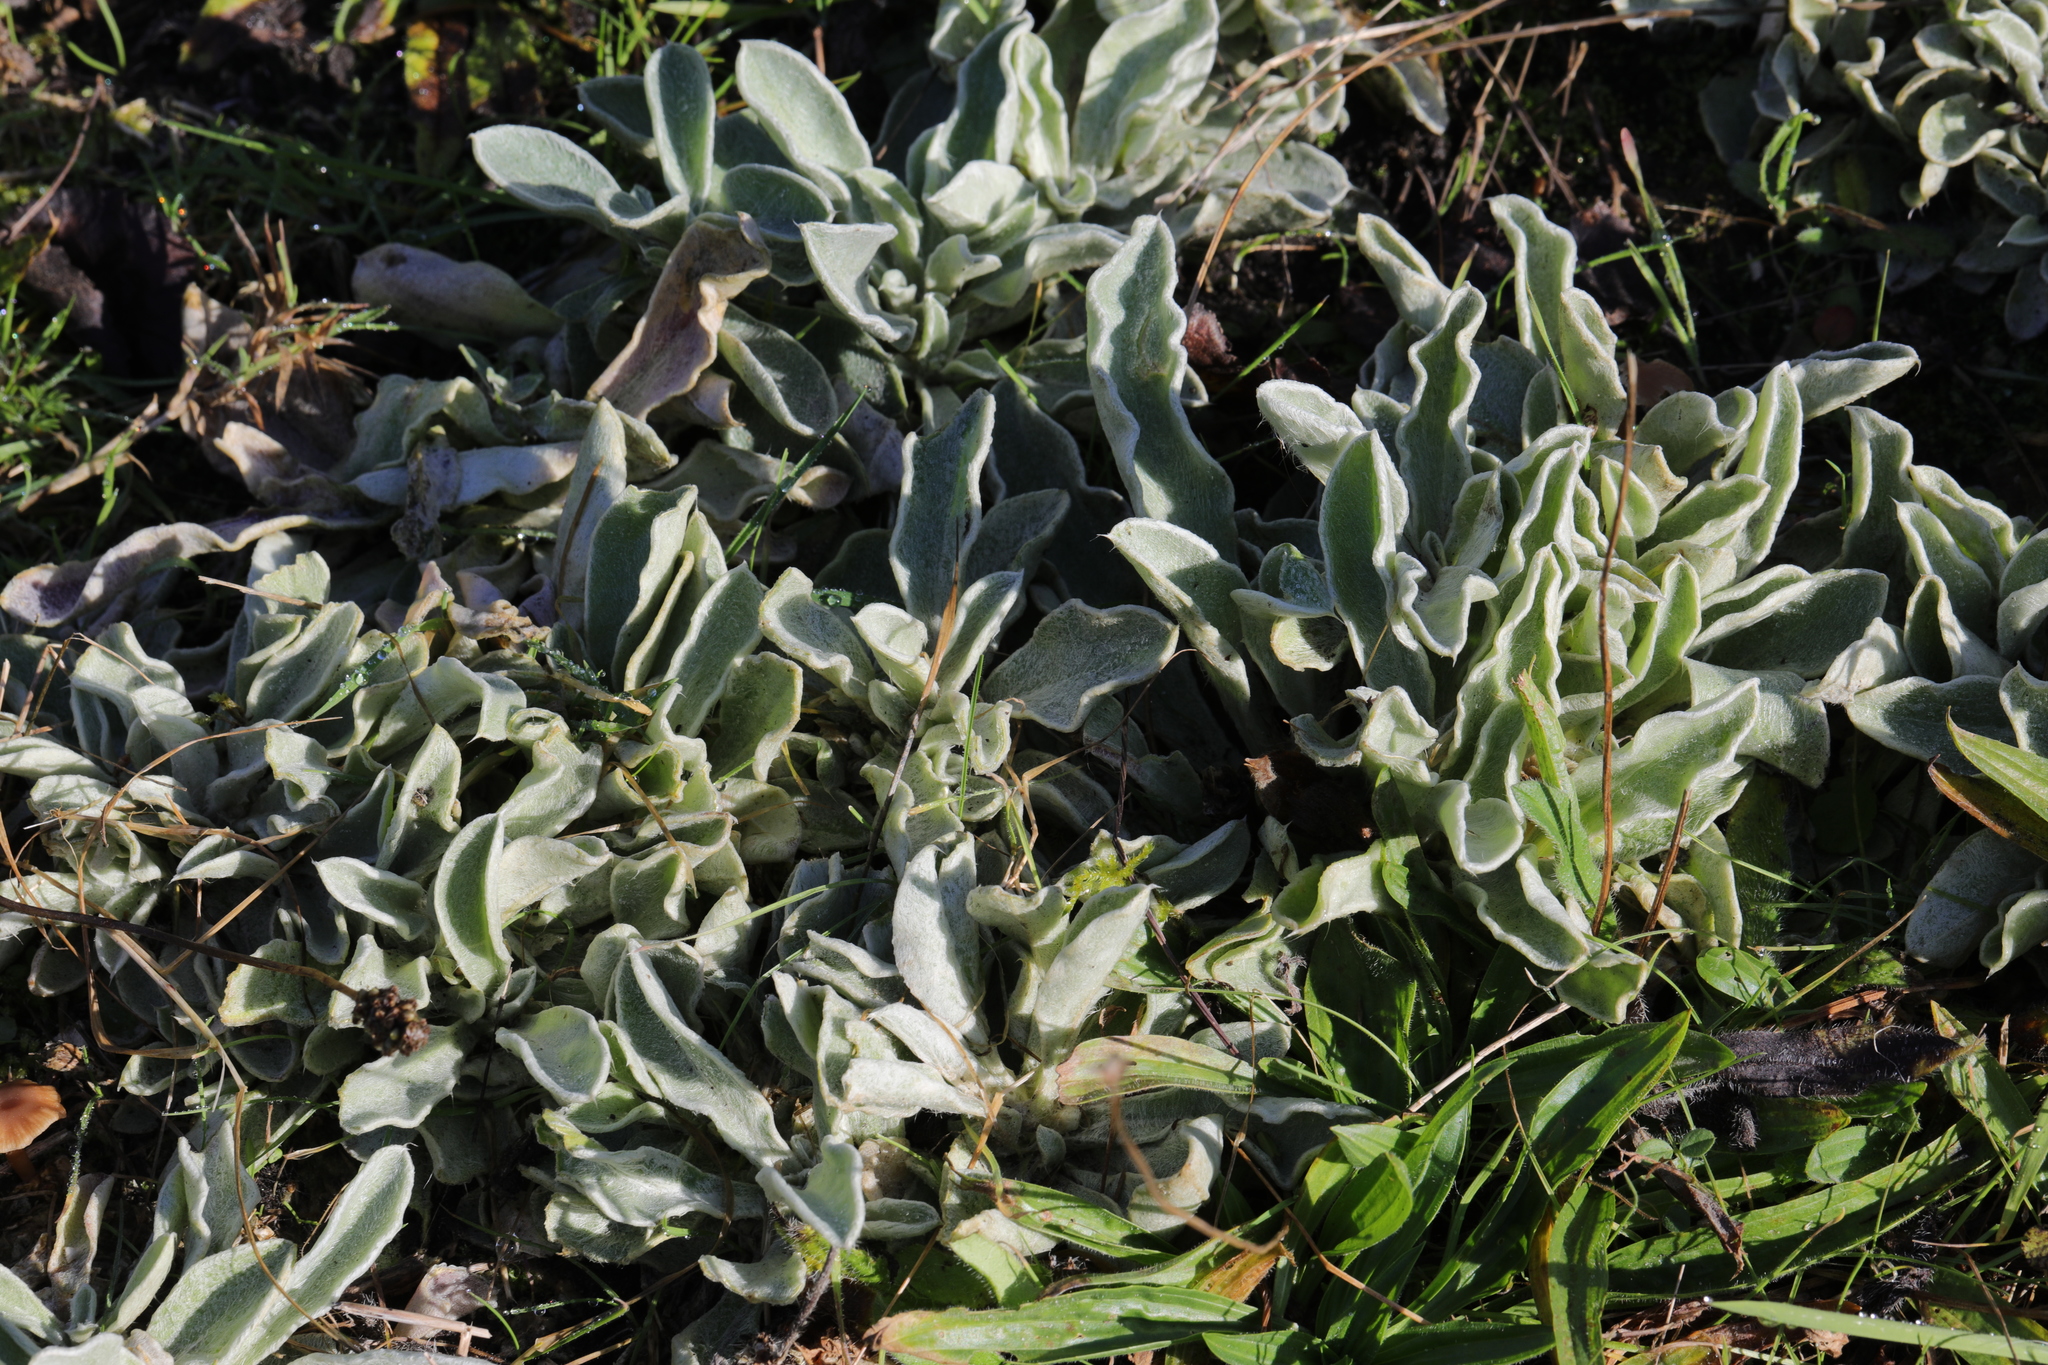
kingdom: Plantae
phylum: Tracheophyta
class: Magnoliopsida
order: Lamiales
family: Lamiaceae
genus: Stachys
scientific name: Stachys byzantina
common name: Lamb's-ear
